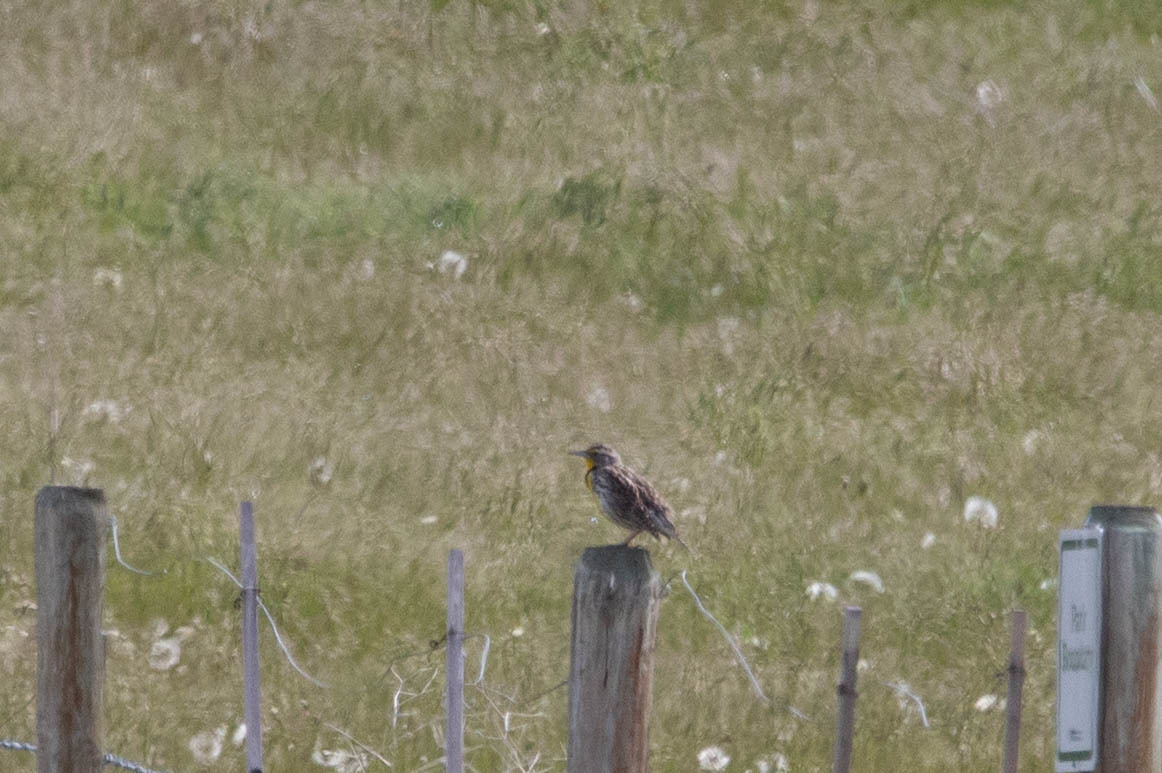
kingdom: Animalia
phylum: Chordata
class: Aves
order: Passeriformes
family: Icteridae
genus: Sturnella
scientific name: Sturnella neglecta
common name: Western meadowlark
